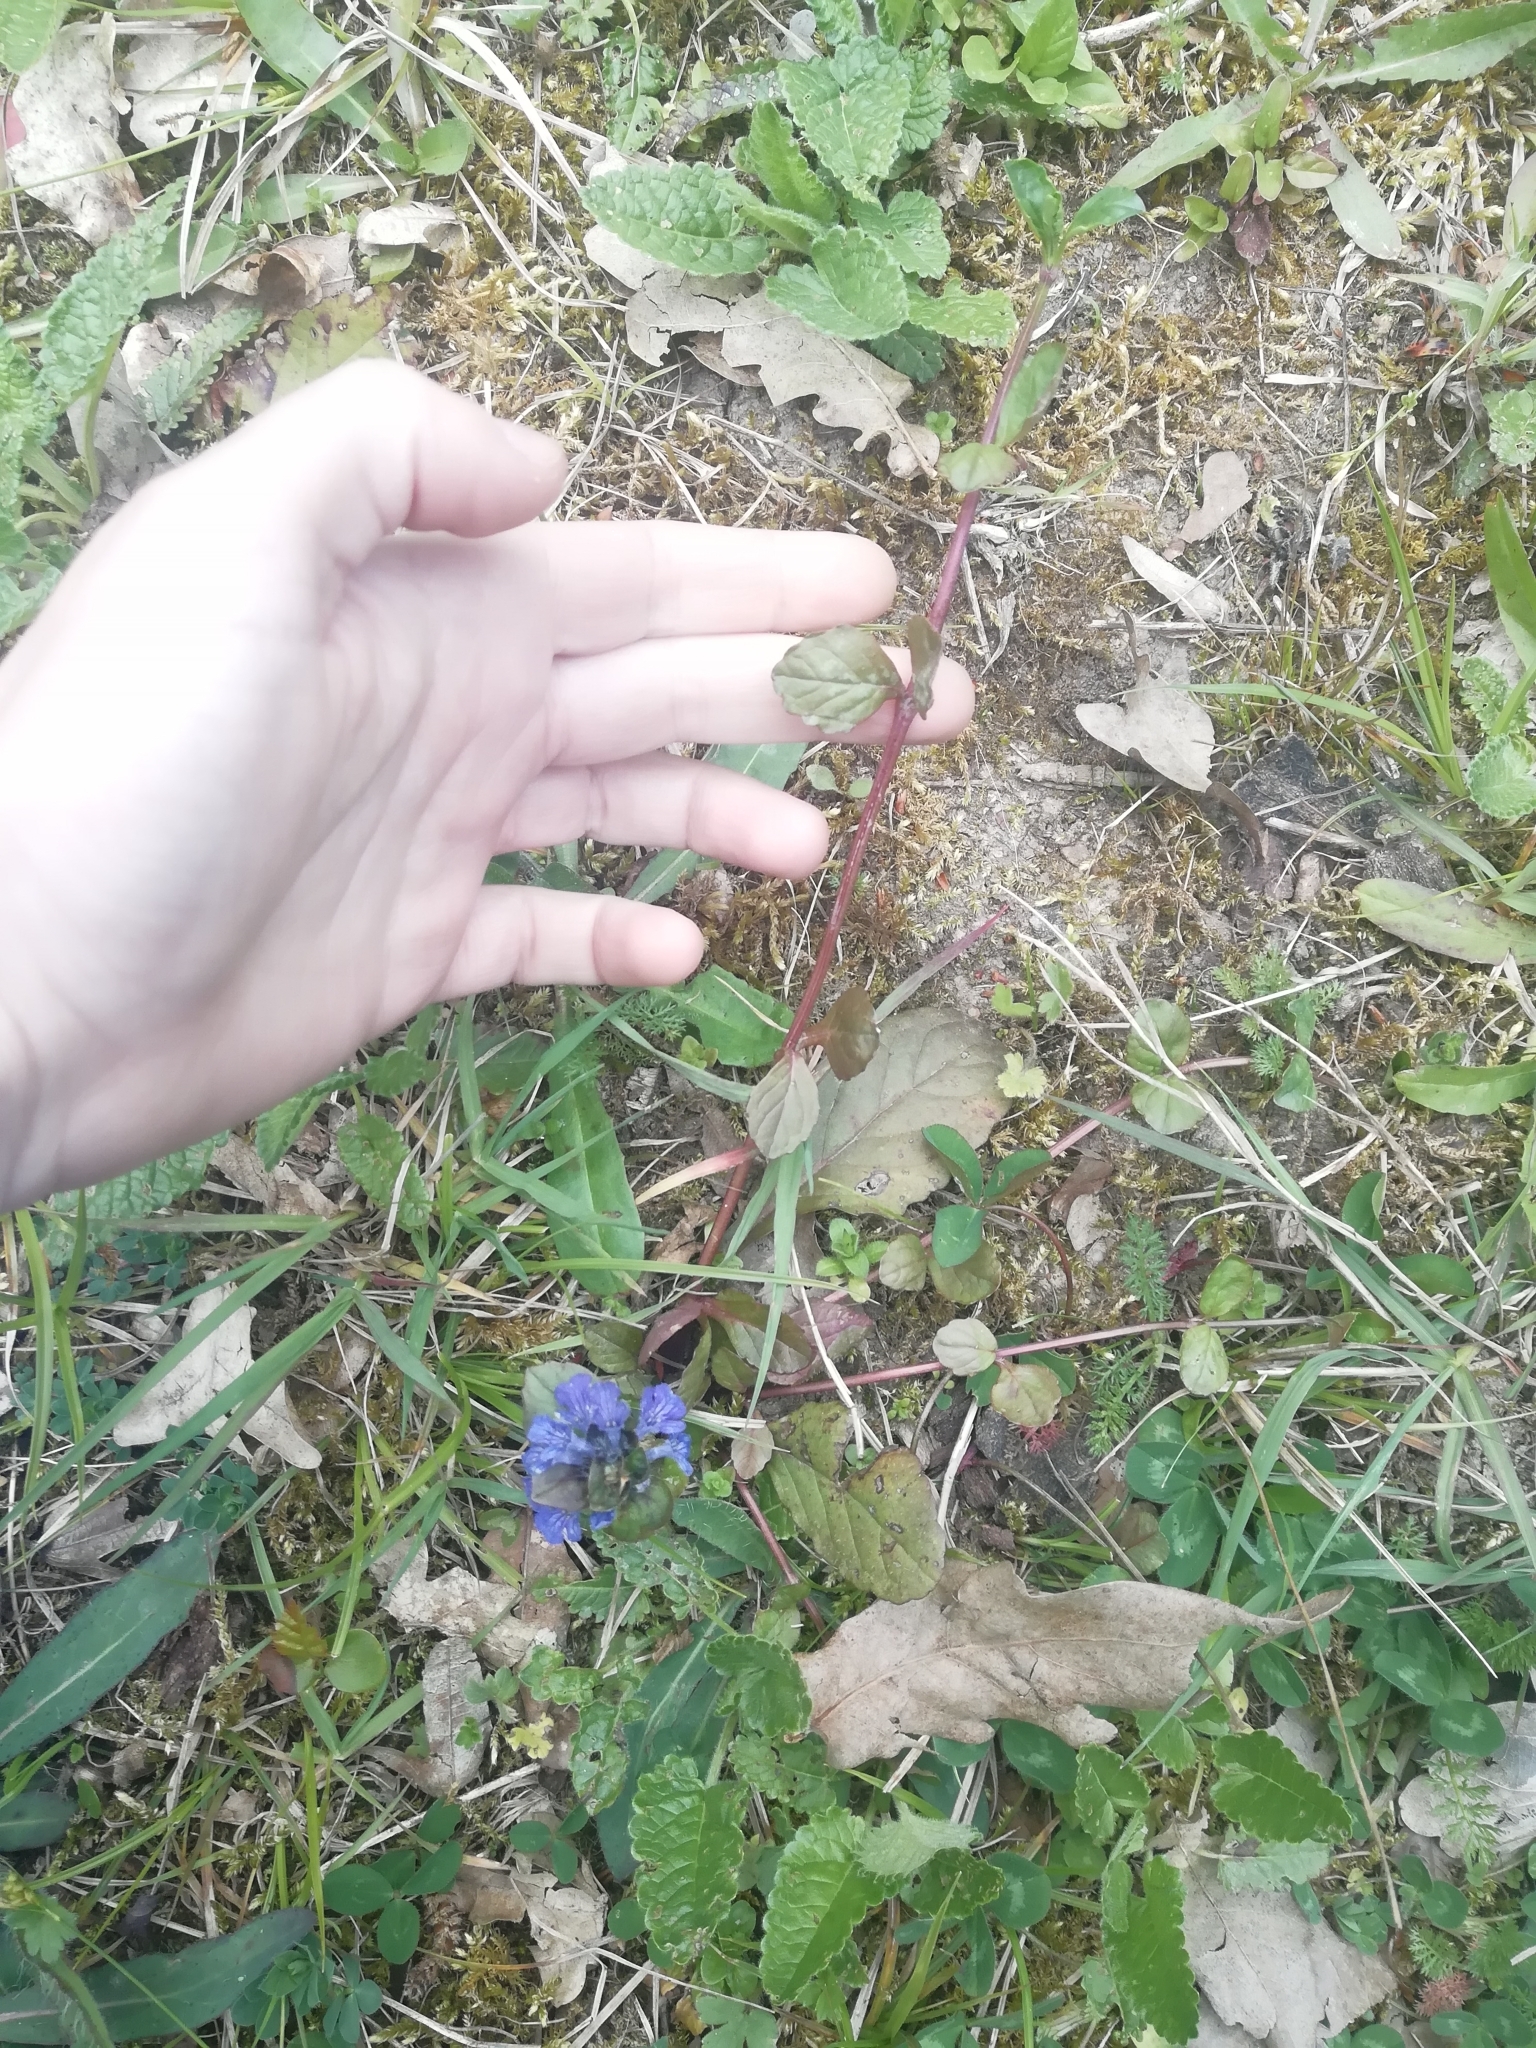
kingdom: Plantae
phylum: Tracheophyta
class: Magnoliopsida
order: Lamiales
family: Lamiaceae
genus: Ajuga
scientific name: Ajuga reptans
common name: Bugle
